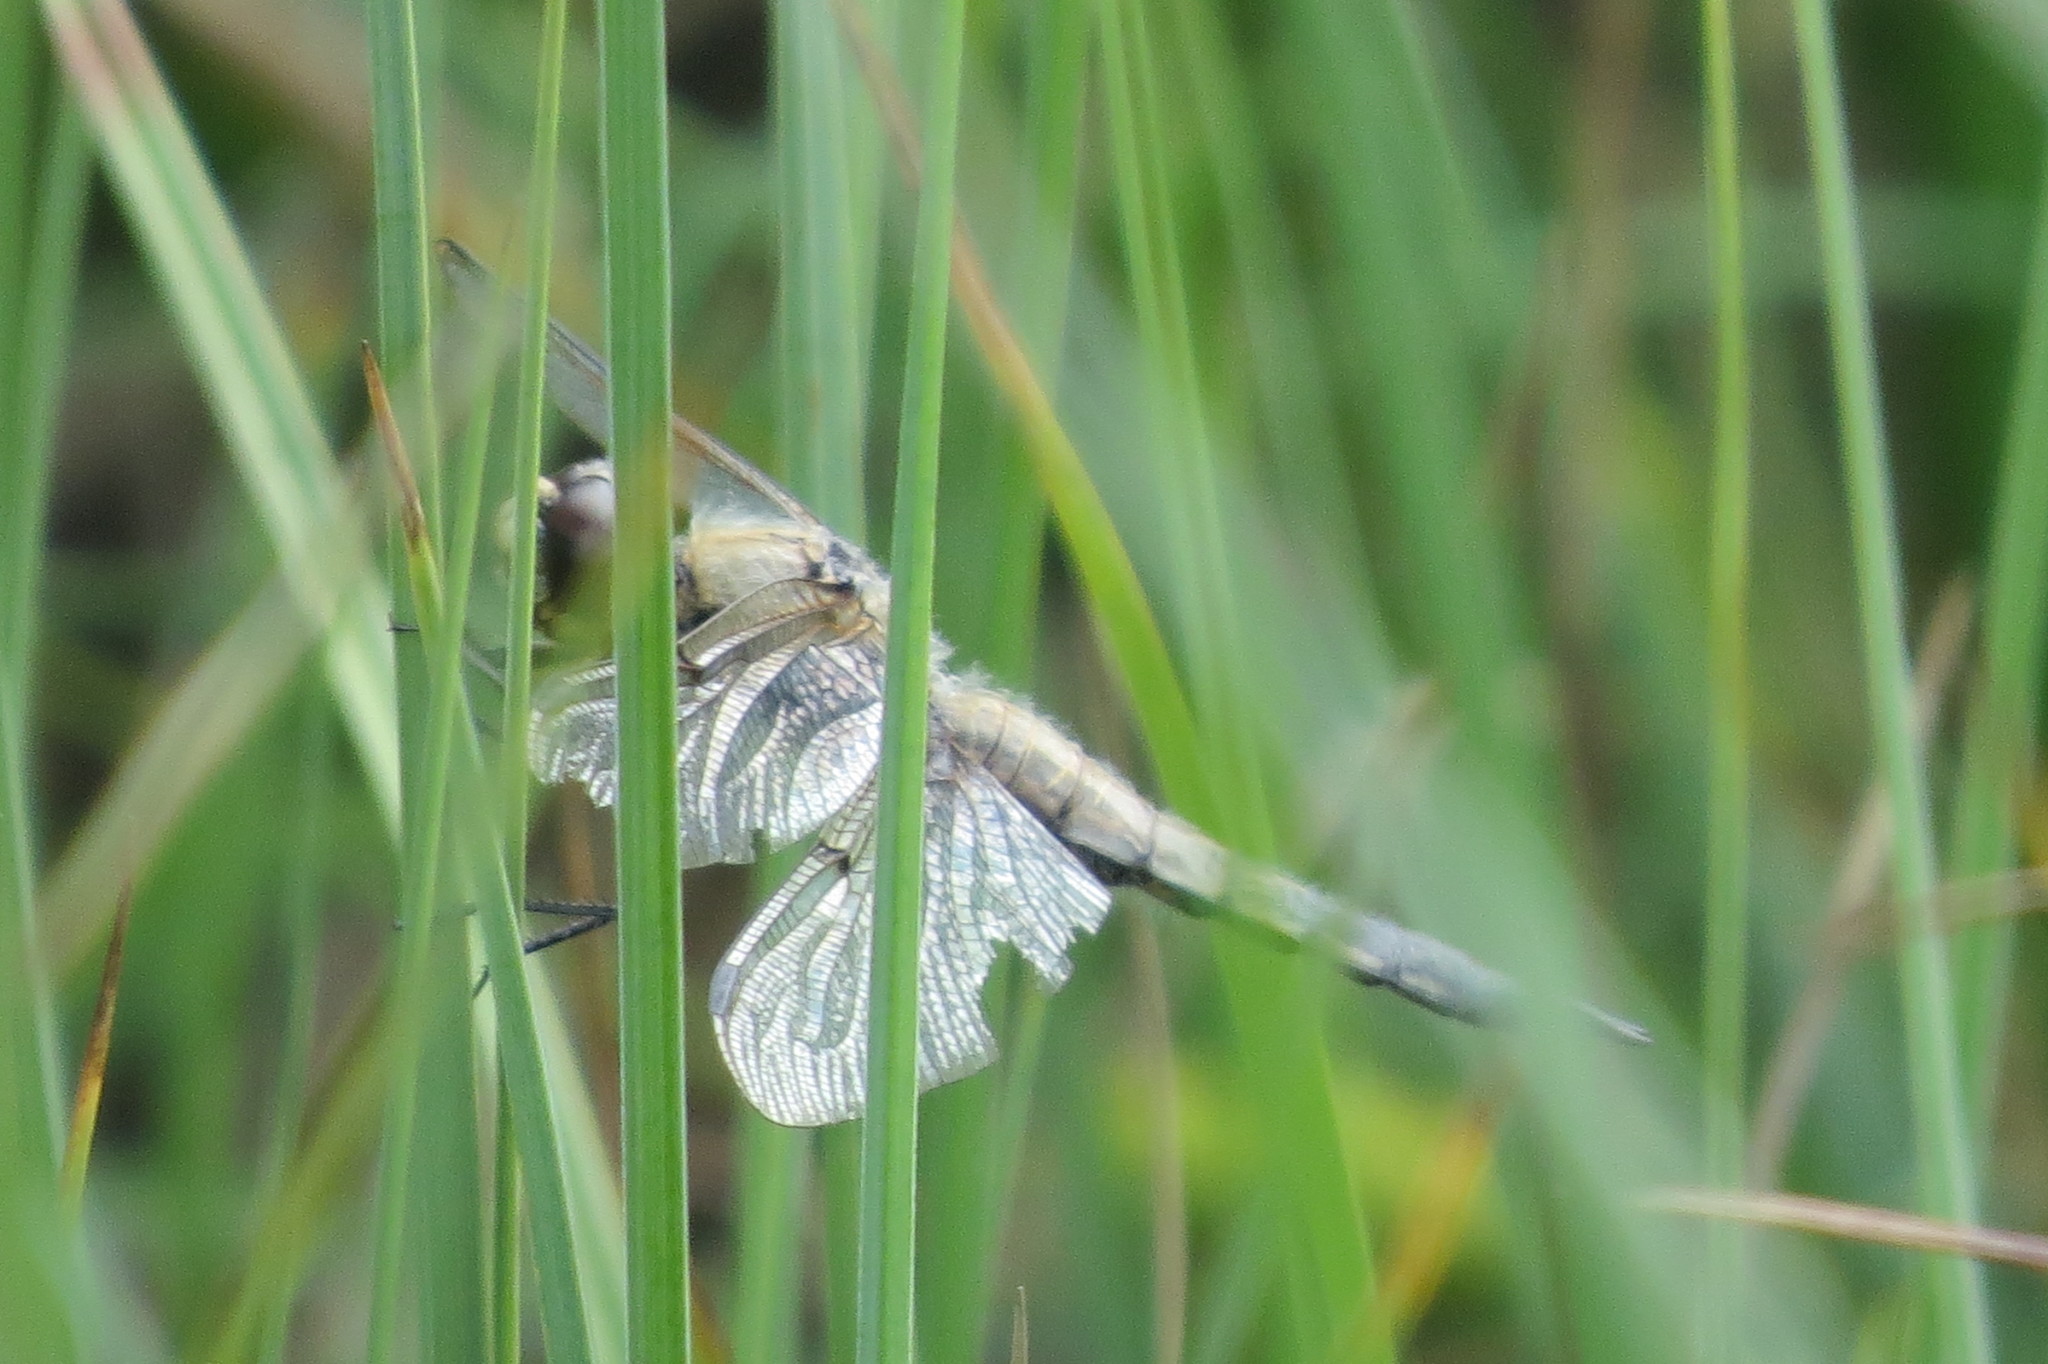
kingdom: Animalia
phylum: Arthropoda
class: Insecta
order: Odonata
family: Libellulidae
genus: Libellula
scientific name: Libellula quadrimaculata
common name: Four-spotted chaser
